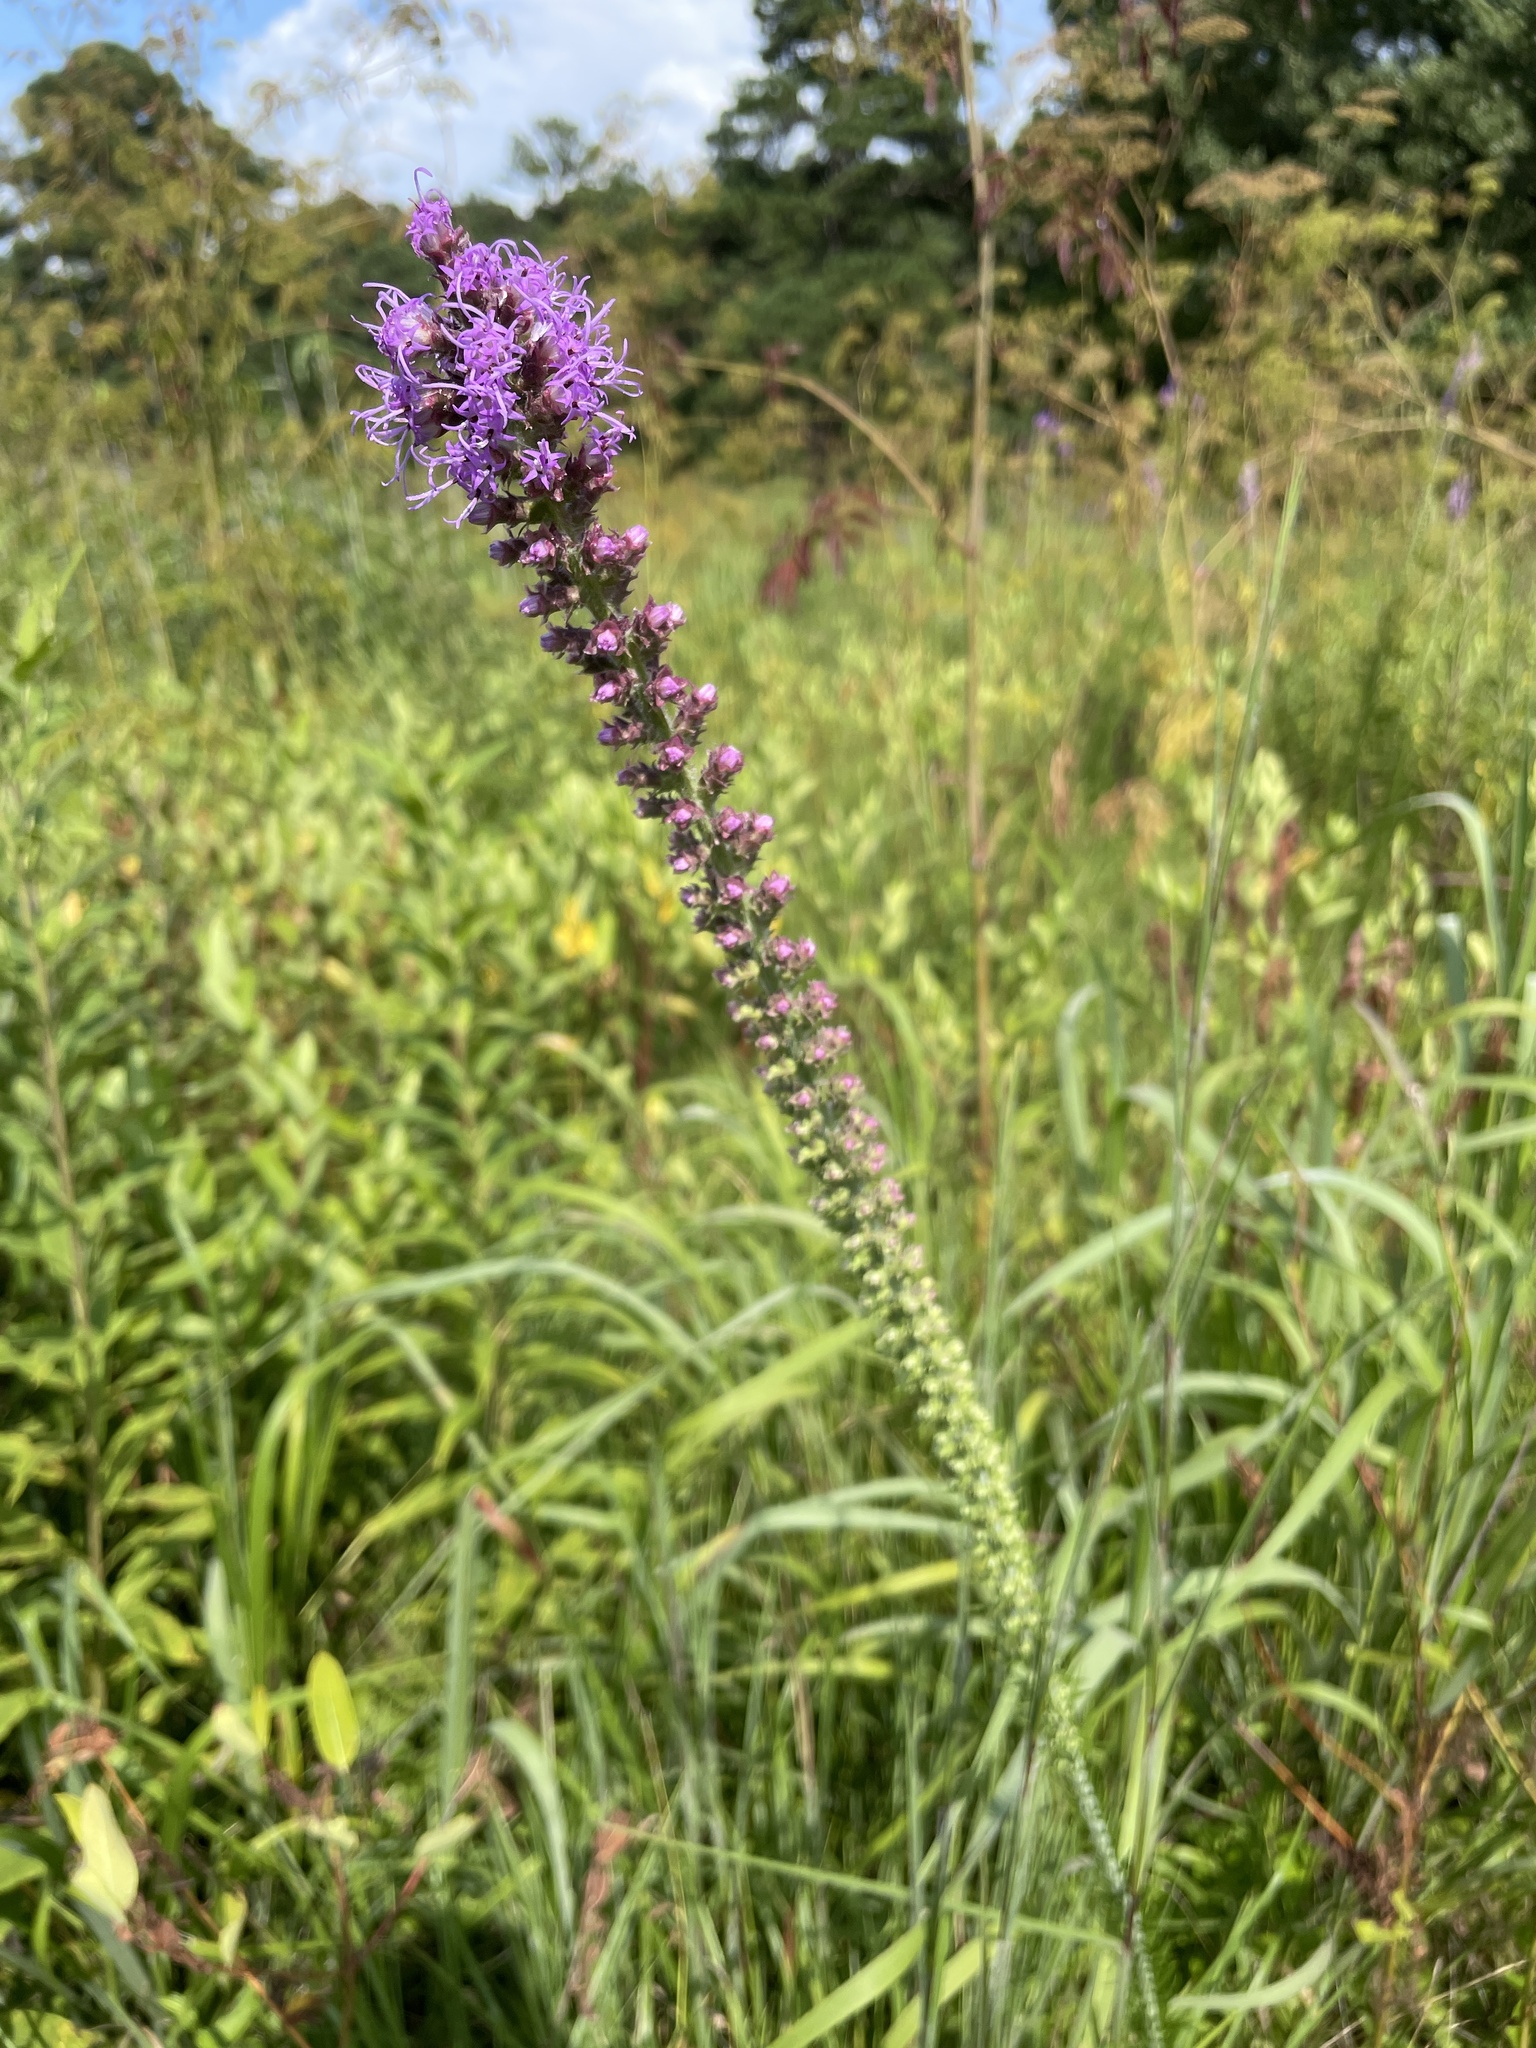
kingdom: Plantae
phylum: Tracheophyta
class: Magnoliopsida
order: Asterales
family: Asteraceae
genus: Liatris
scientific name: Liatris pycnostachya
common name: Cattail gayfeather
